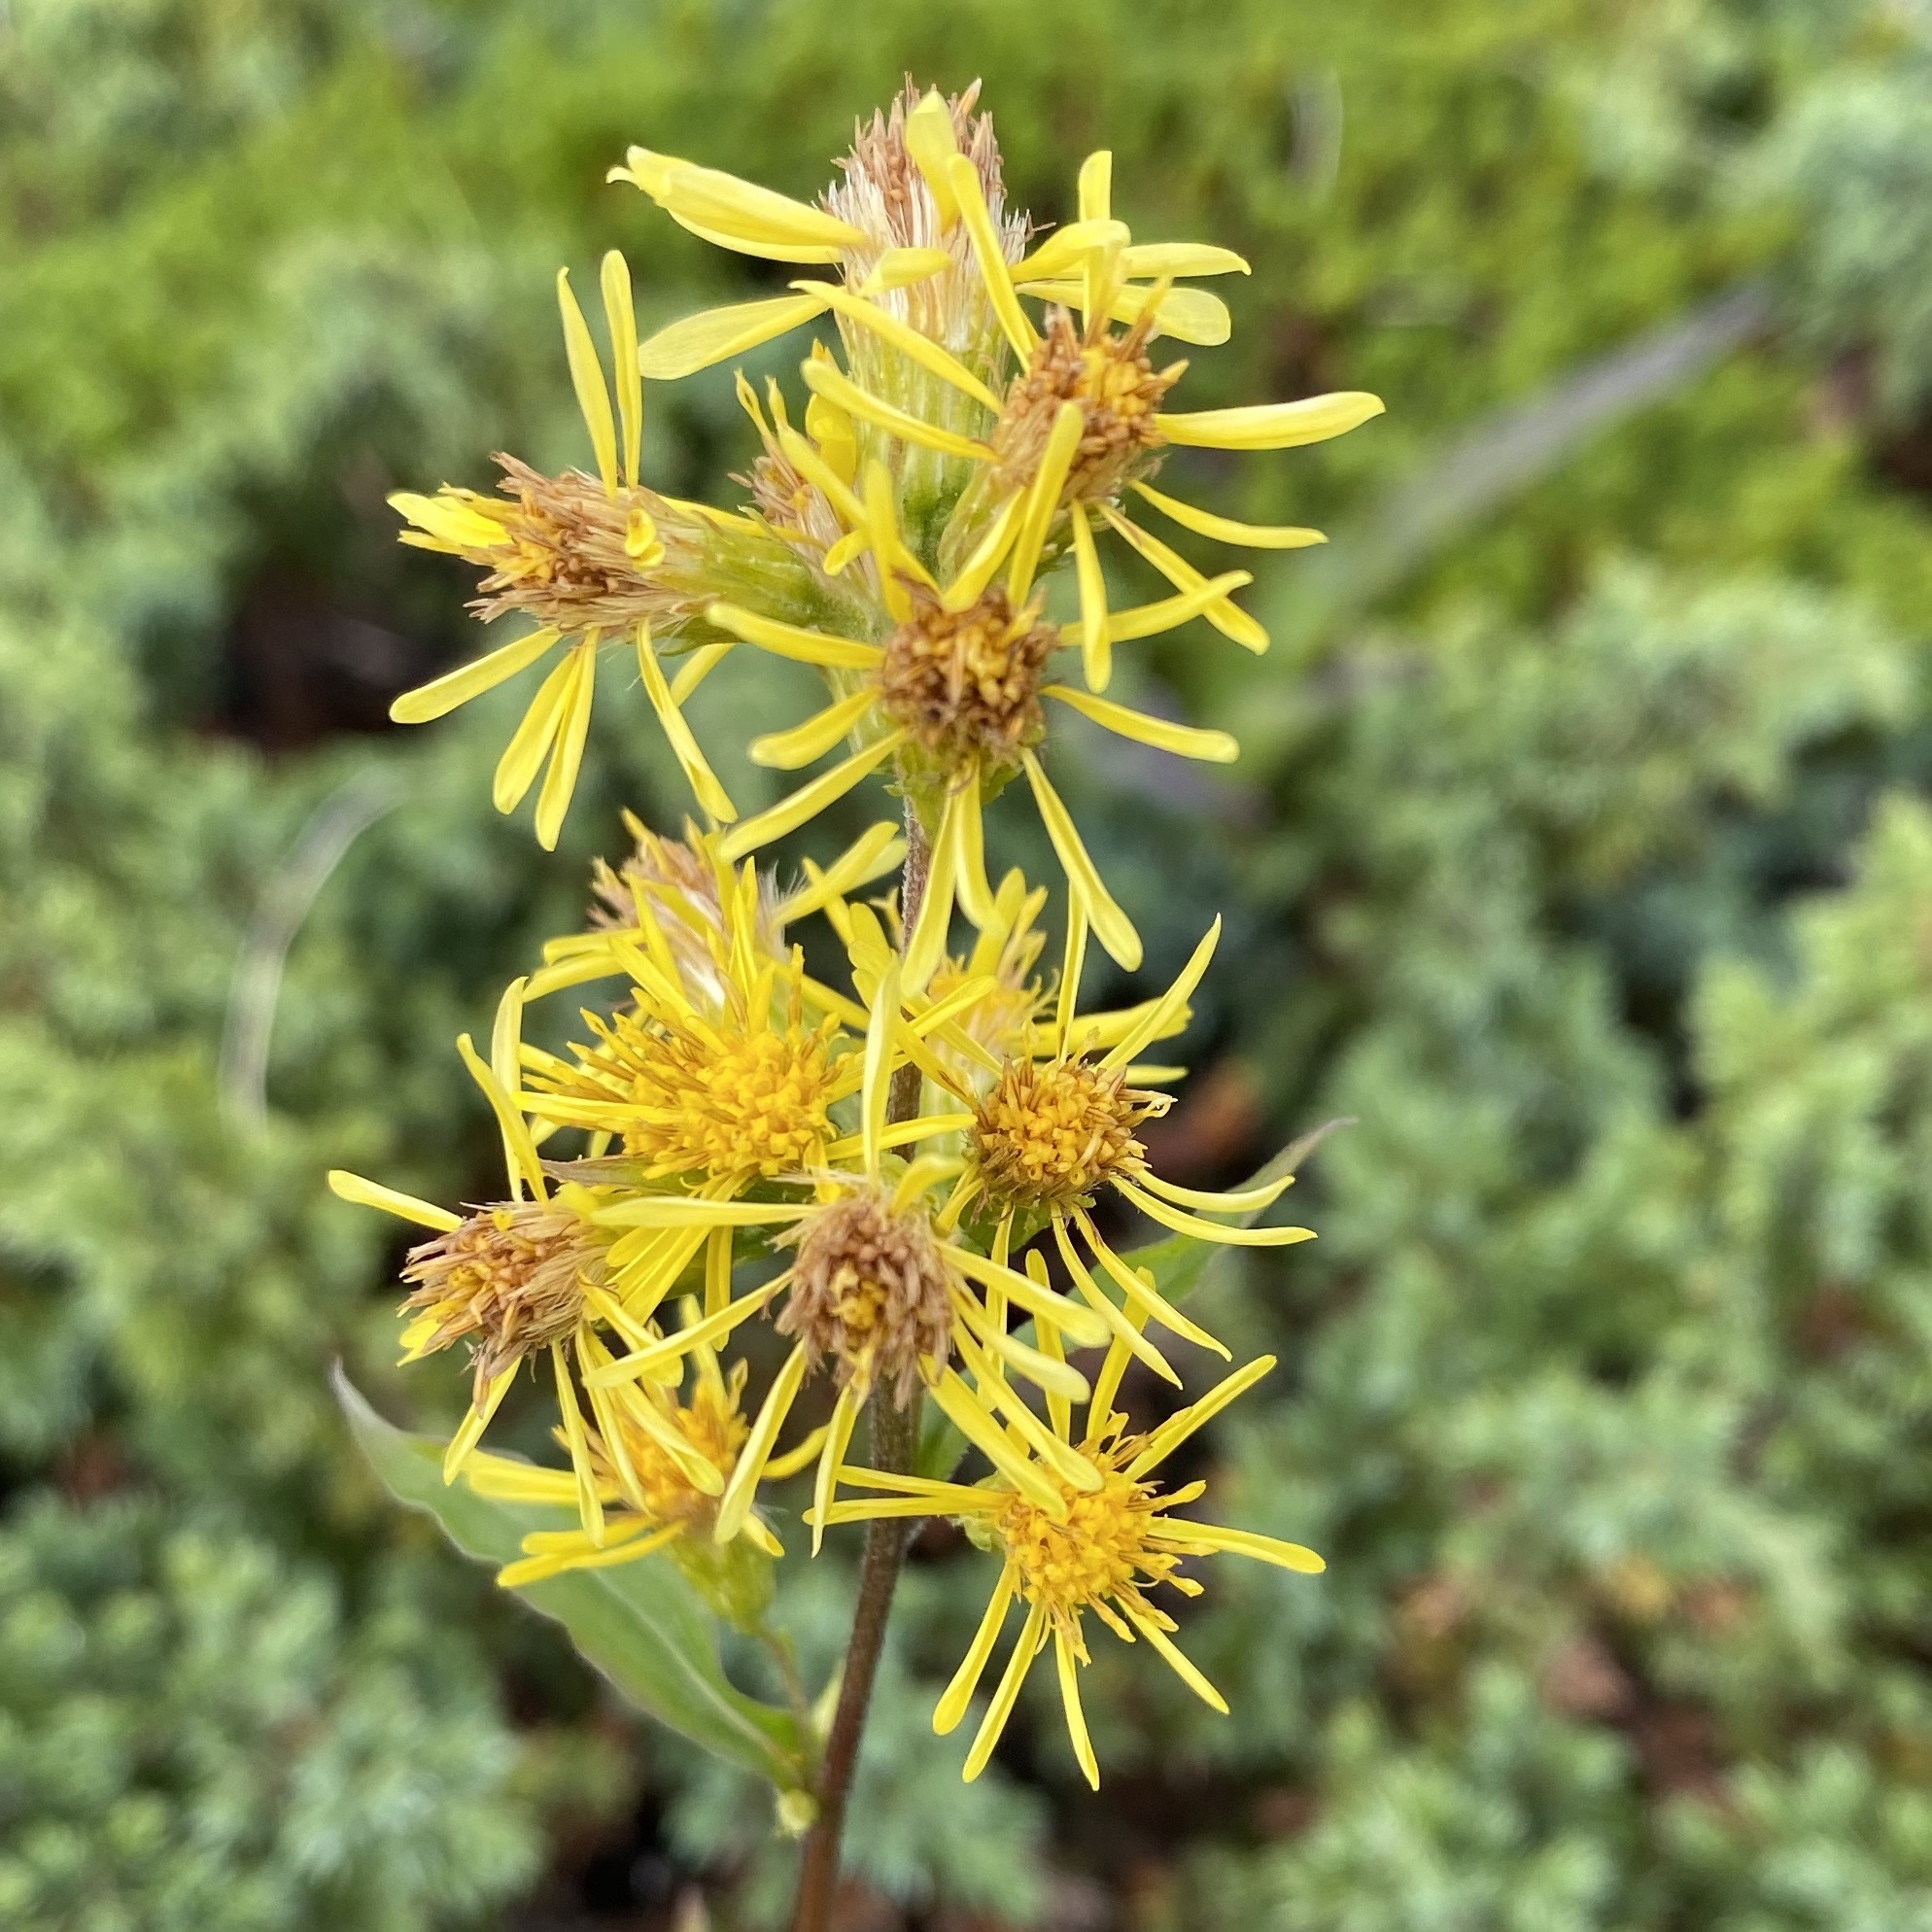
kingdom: Plantae
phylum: Tracheophyta
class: Magnoliopsida
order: Asterales
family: Asteraceae
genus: Solidago
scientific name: Solidago virgaurea
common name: Goldenrod
